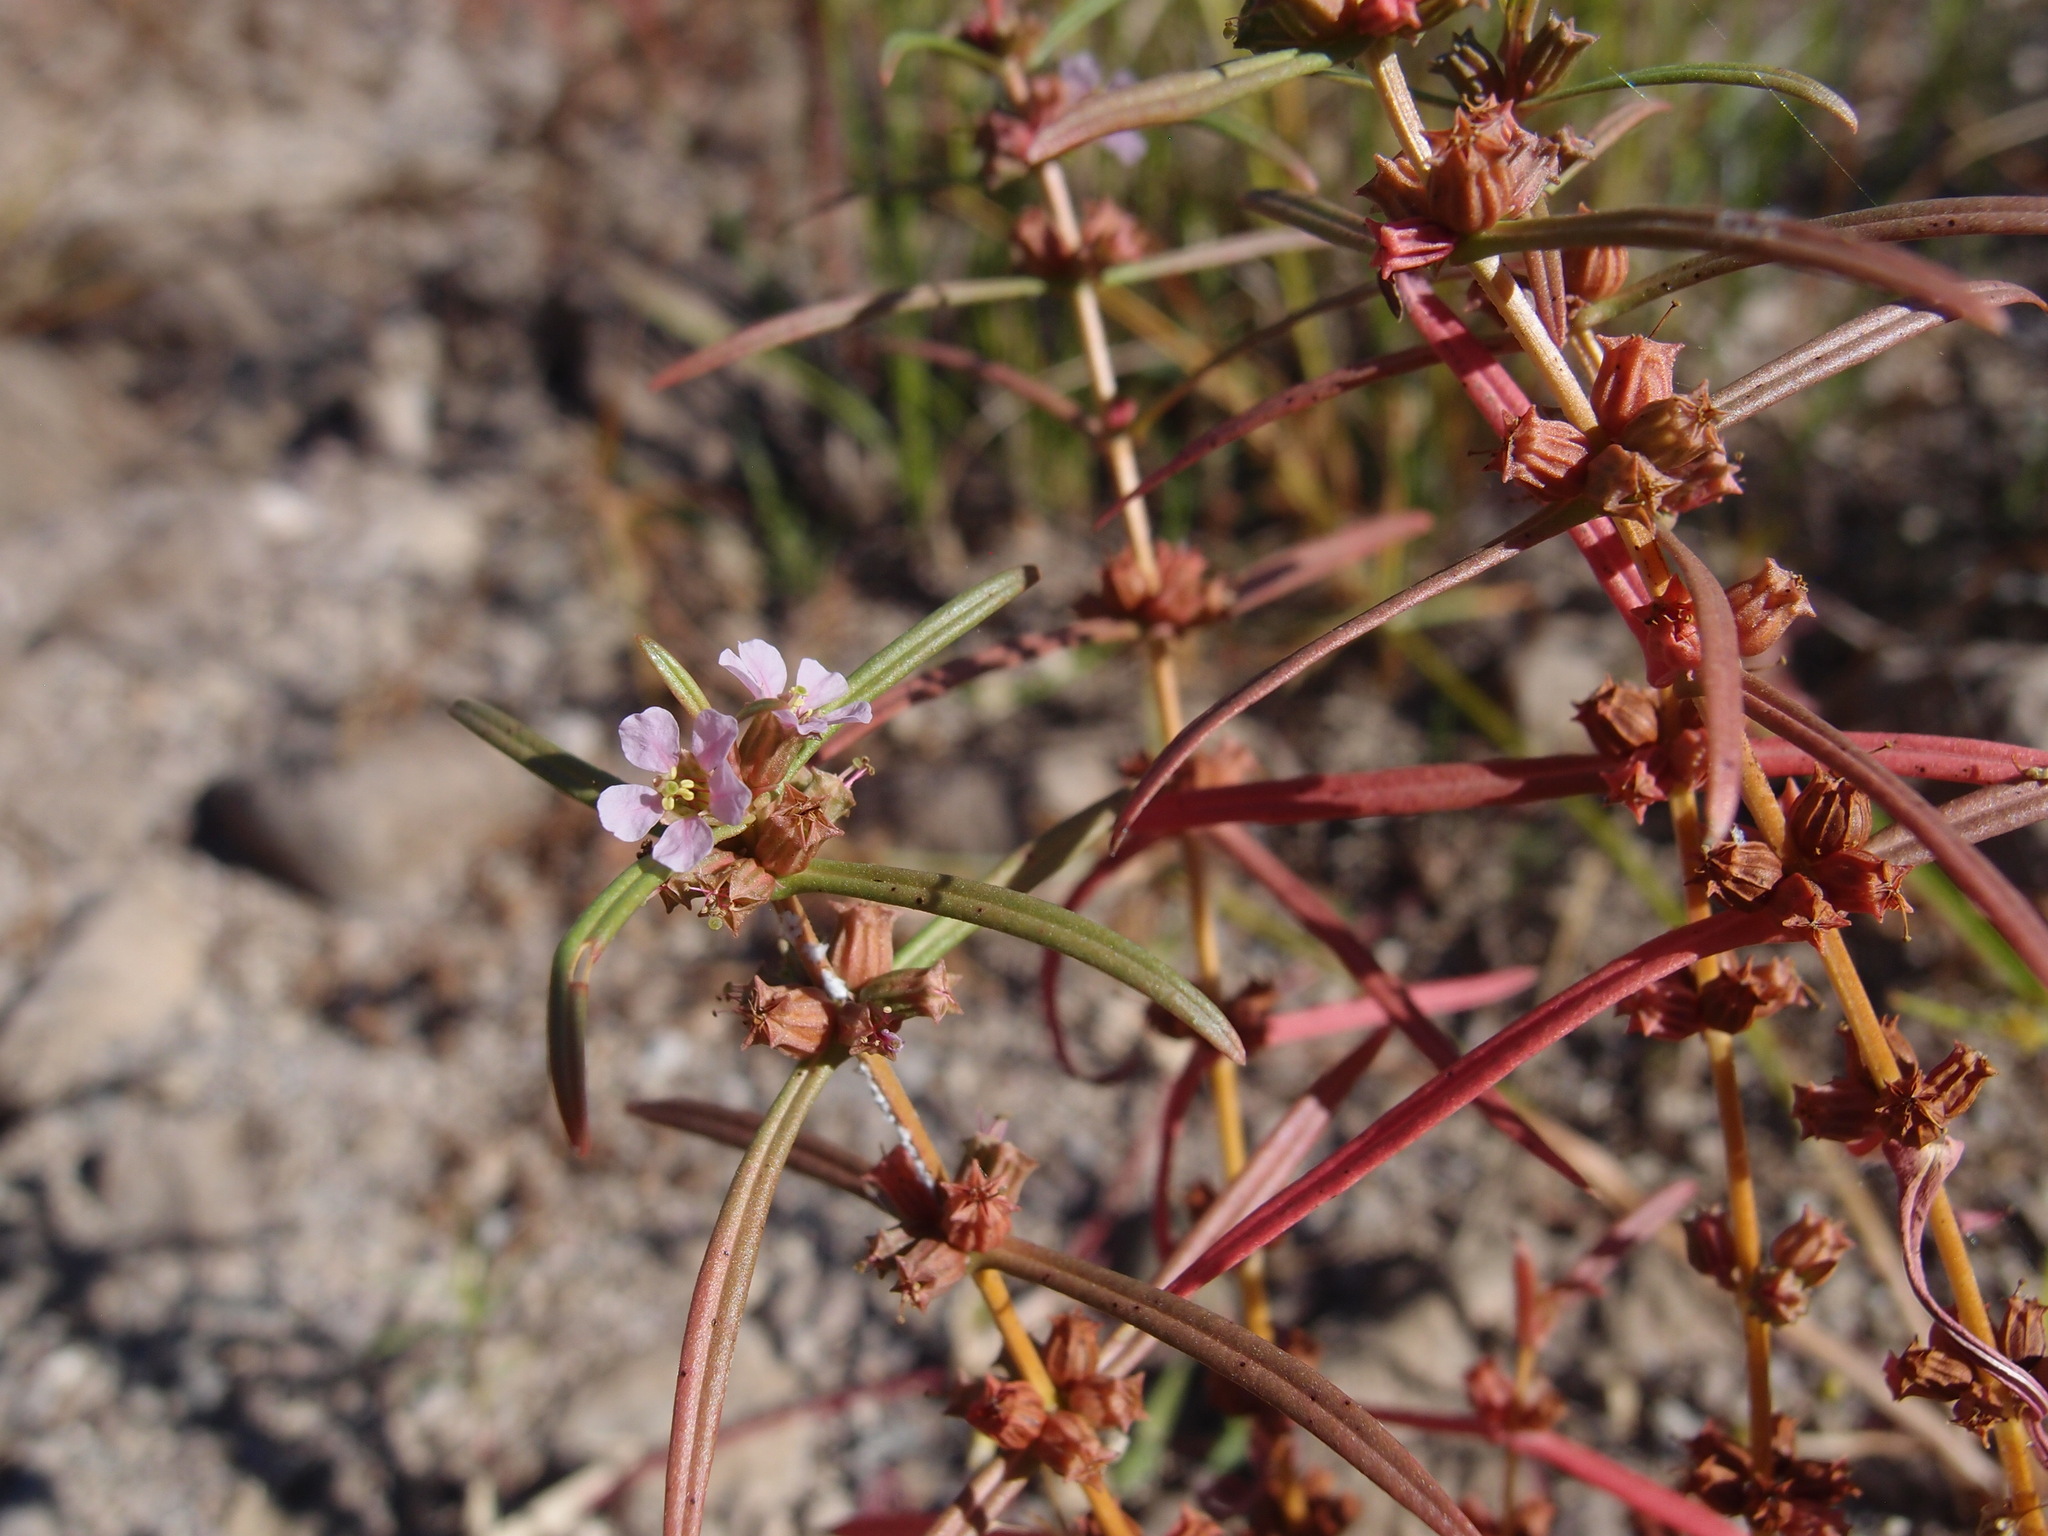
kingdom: Plantae
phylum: Tracheophyta
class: Magnoliopsida
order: Myrtales
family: Lythraceae
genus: Ammannia
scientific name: Ammannia robusta
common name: Grand ammannia
